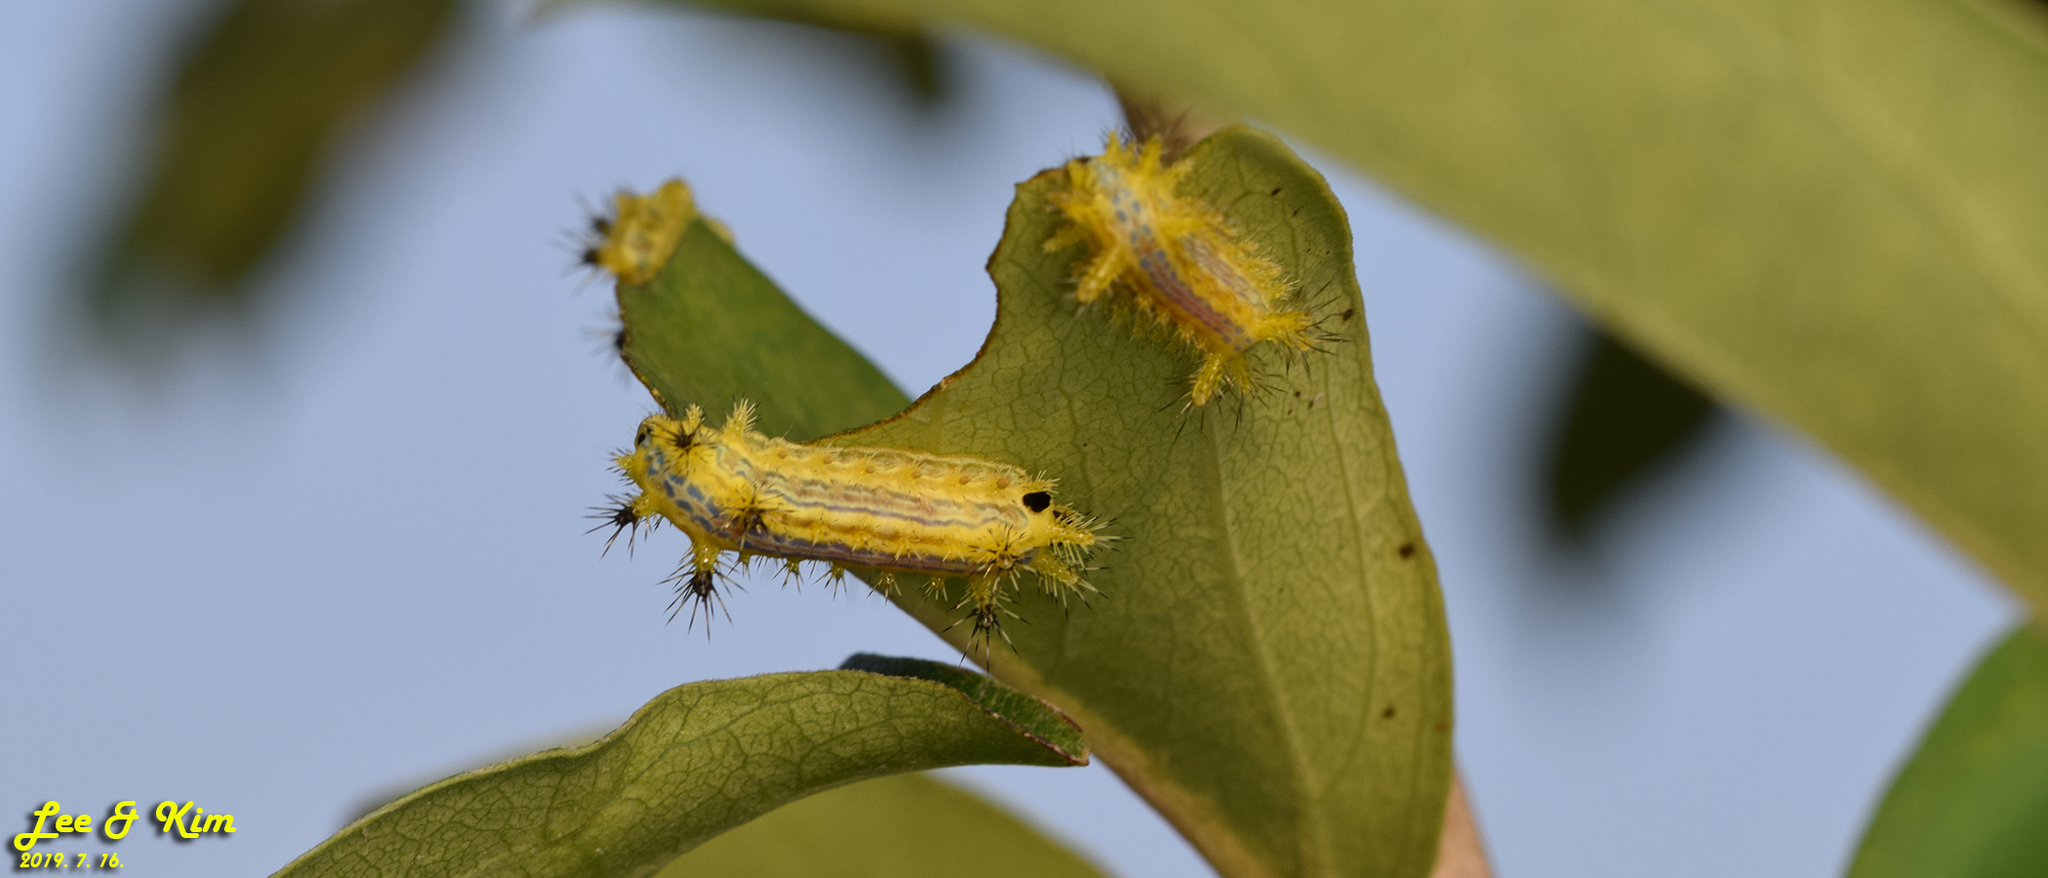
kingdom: Animalia
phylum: Arthropoda
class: Insecta
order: Lepidoptera
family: Limacodidae
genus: Parasa
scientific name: Parasa hilarata
